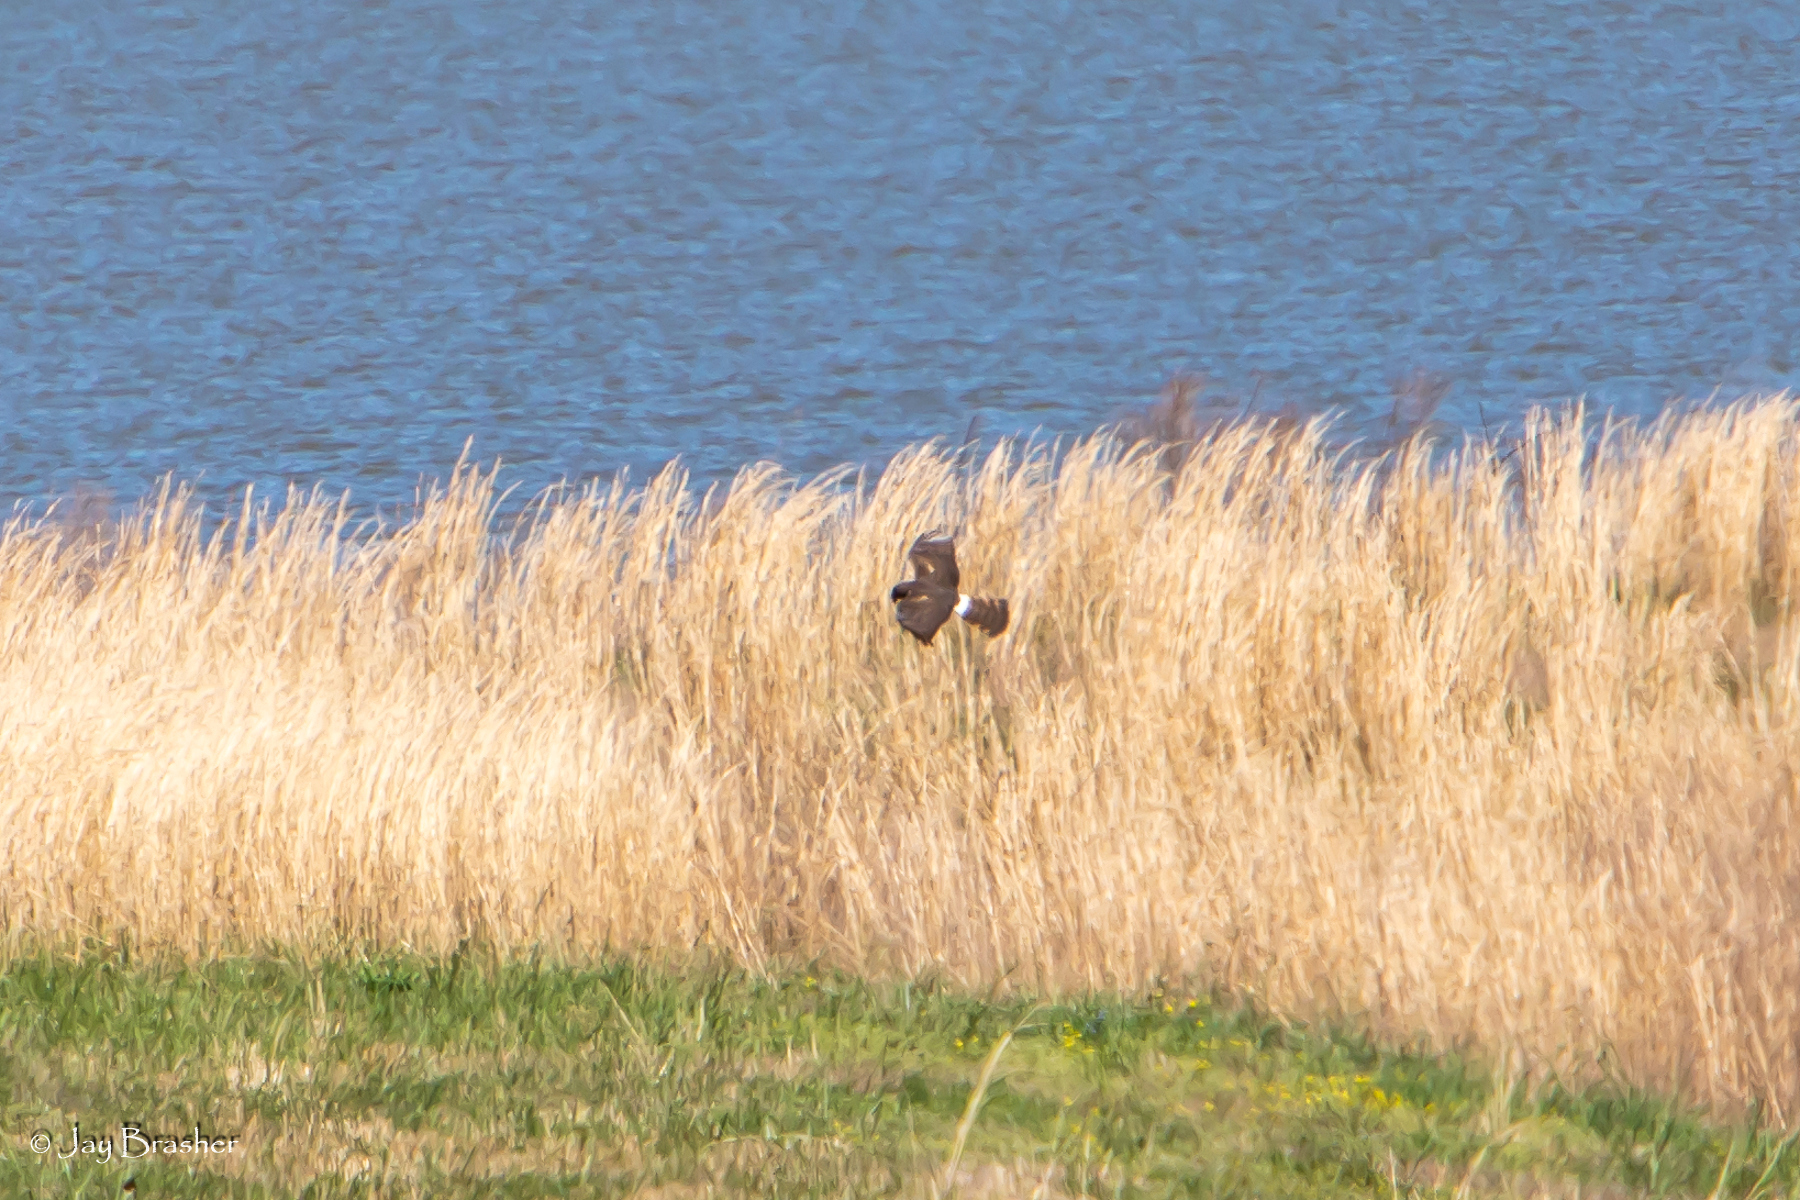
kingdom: Animalia
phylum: Chordata
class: Aves
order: Accipitriformes
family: Accipitridae
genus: Circus
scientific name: Circus cyaneus
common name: Hen harrier
